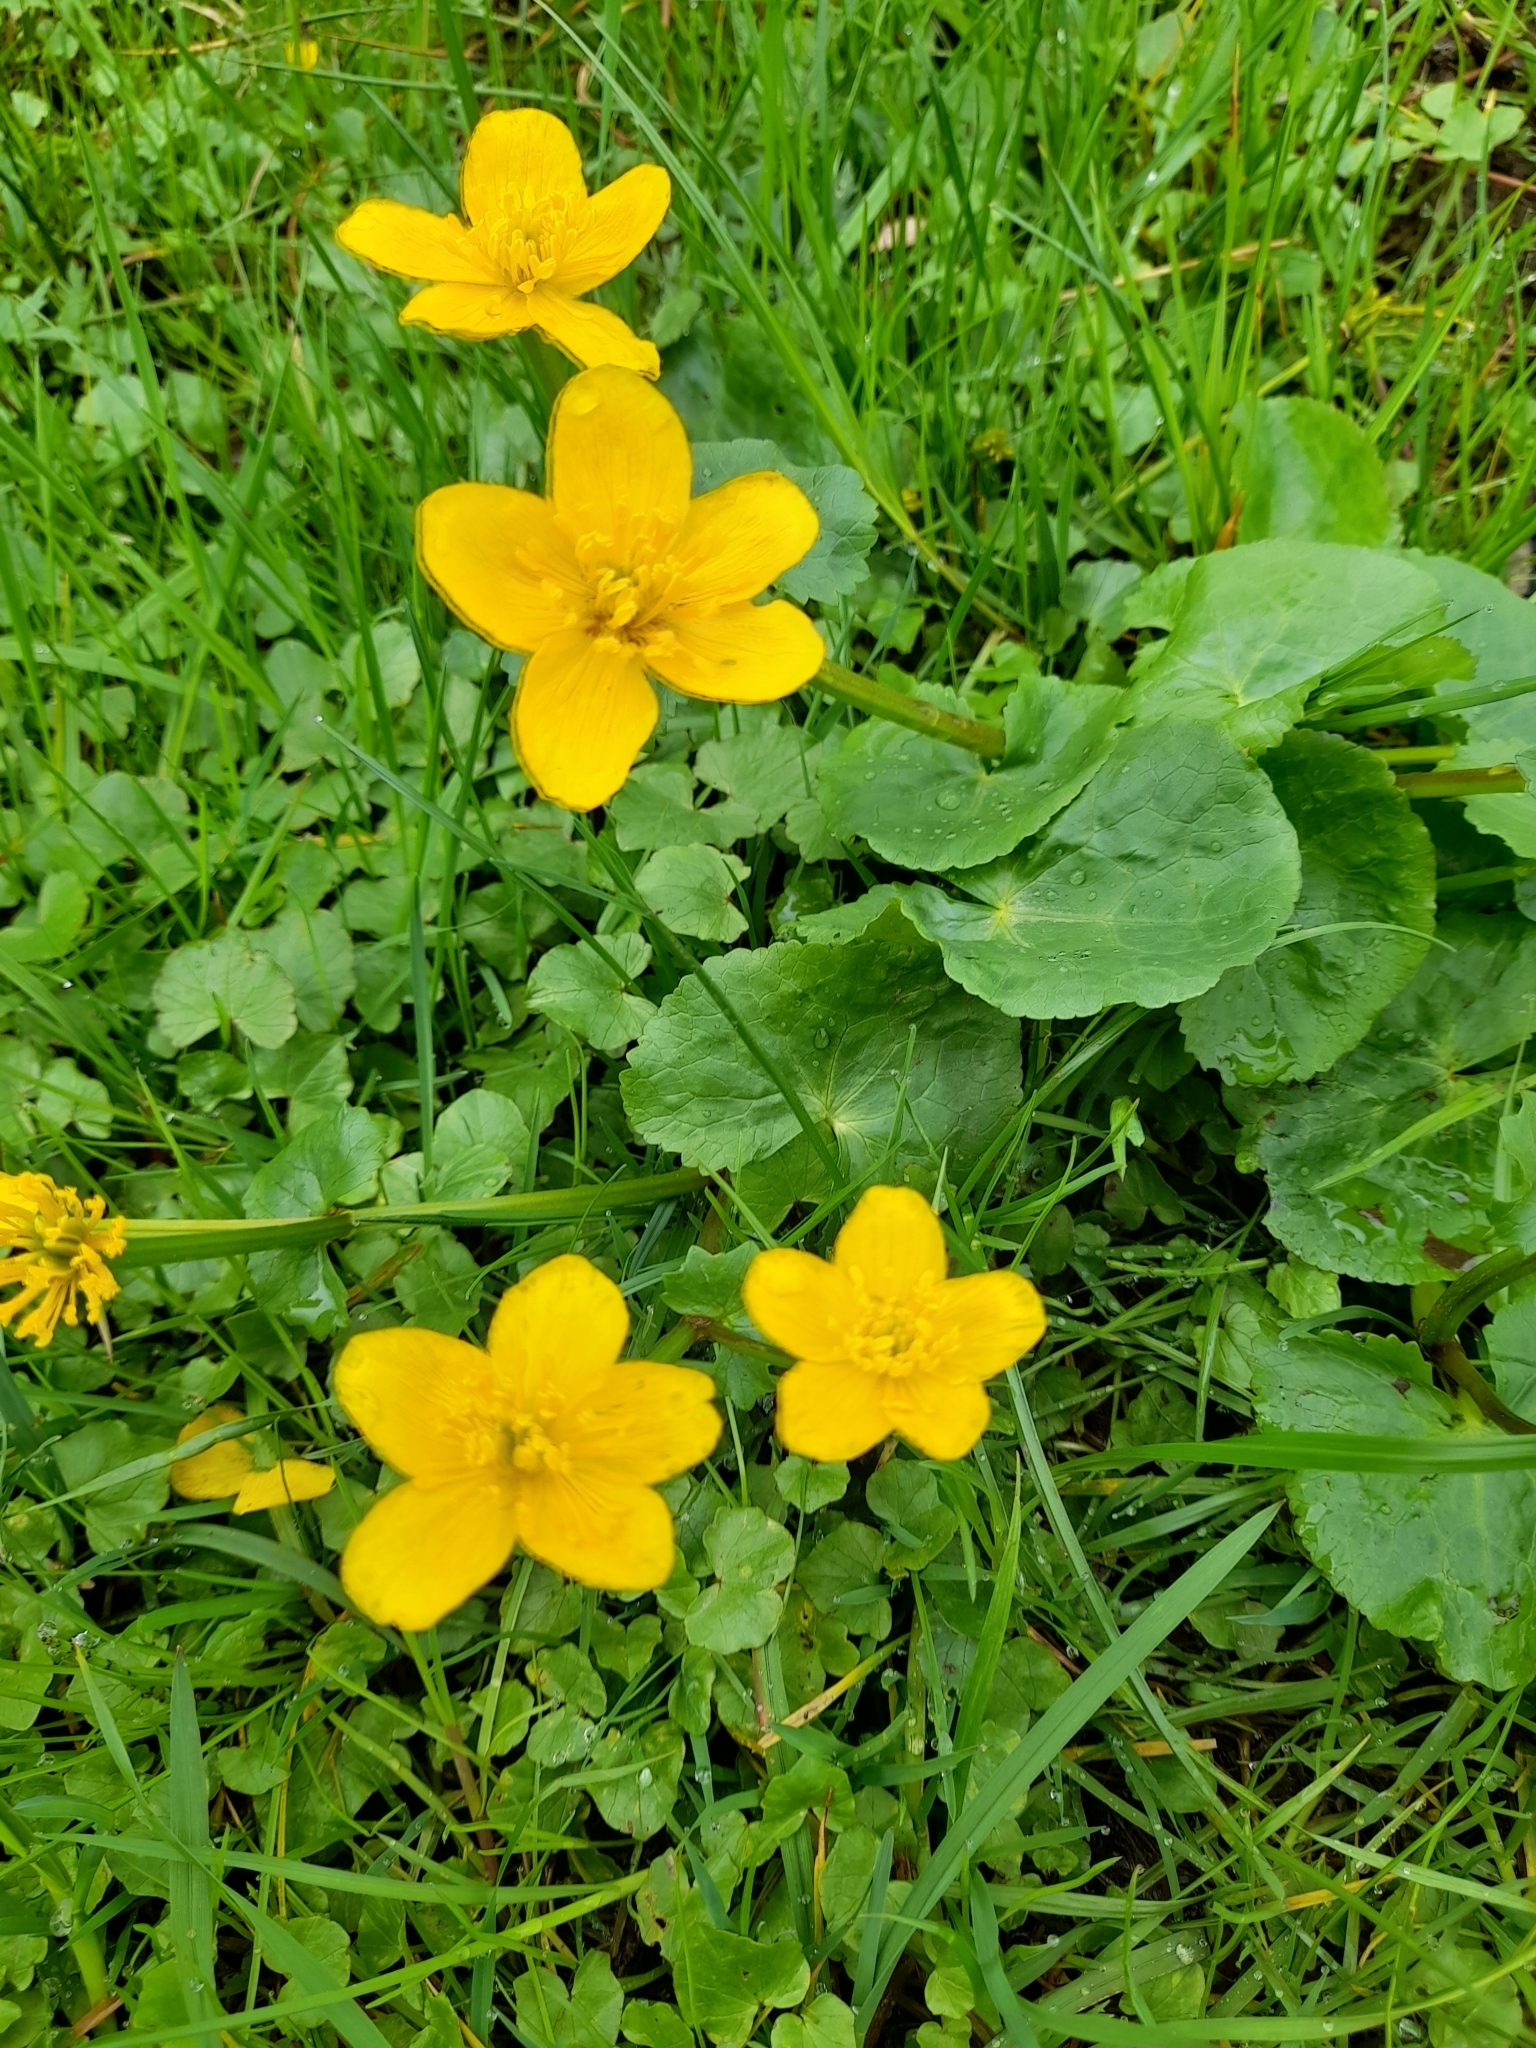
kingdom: Plantae
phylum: Tracheophyta
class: Magnoliopsida
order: Ranunculales
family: Ranunculaceae
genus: Caltha
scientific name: Caltha palustris
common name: Marsh marigold
